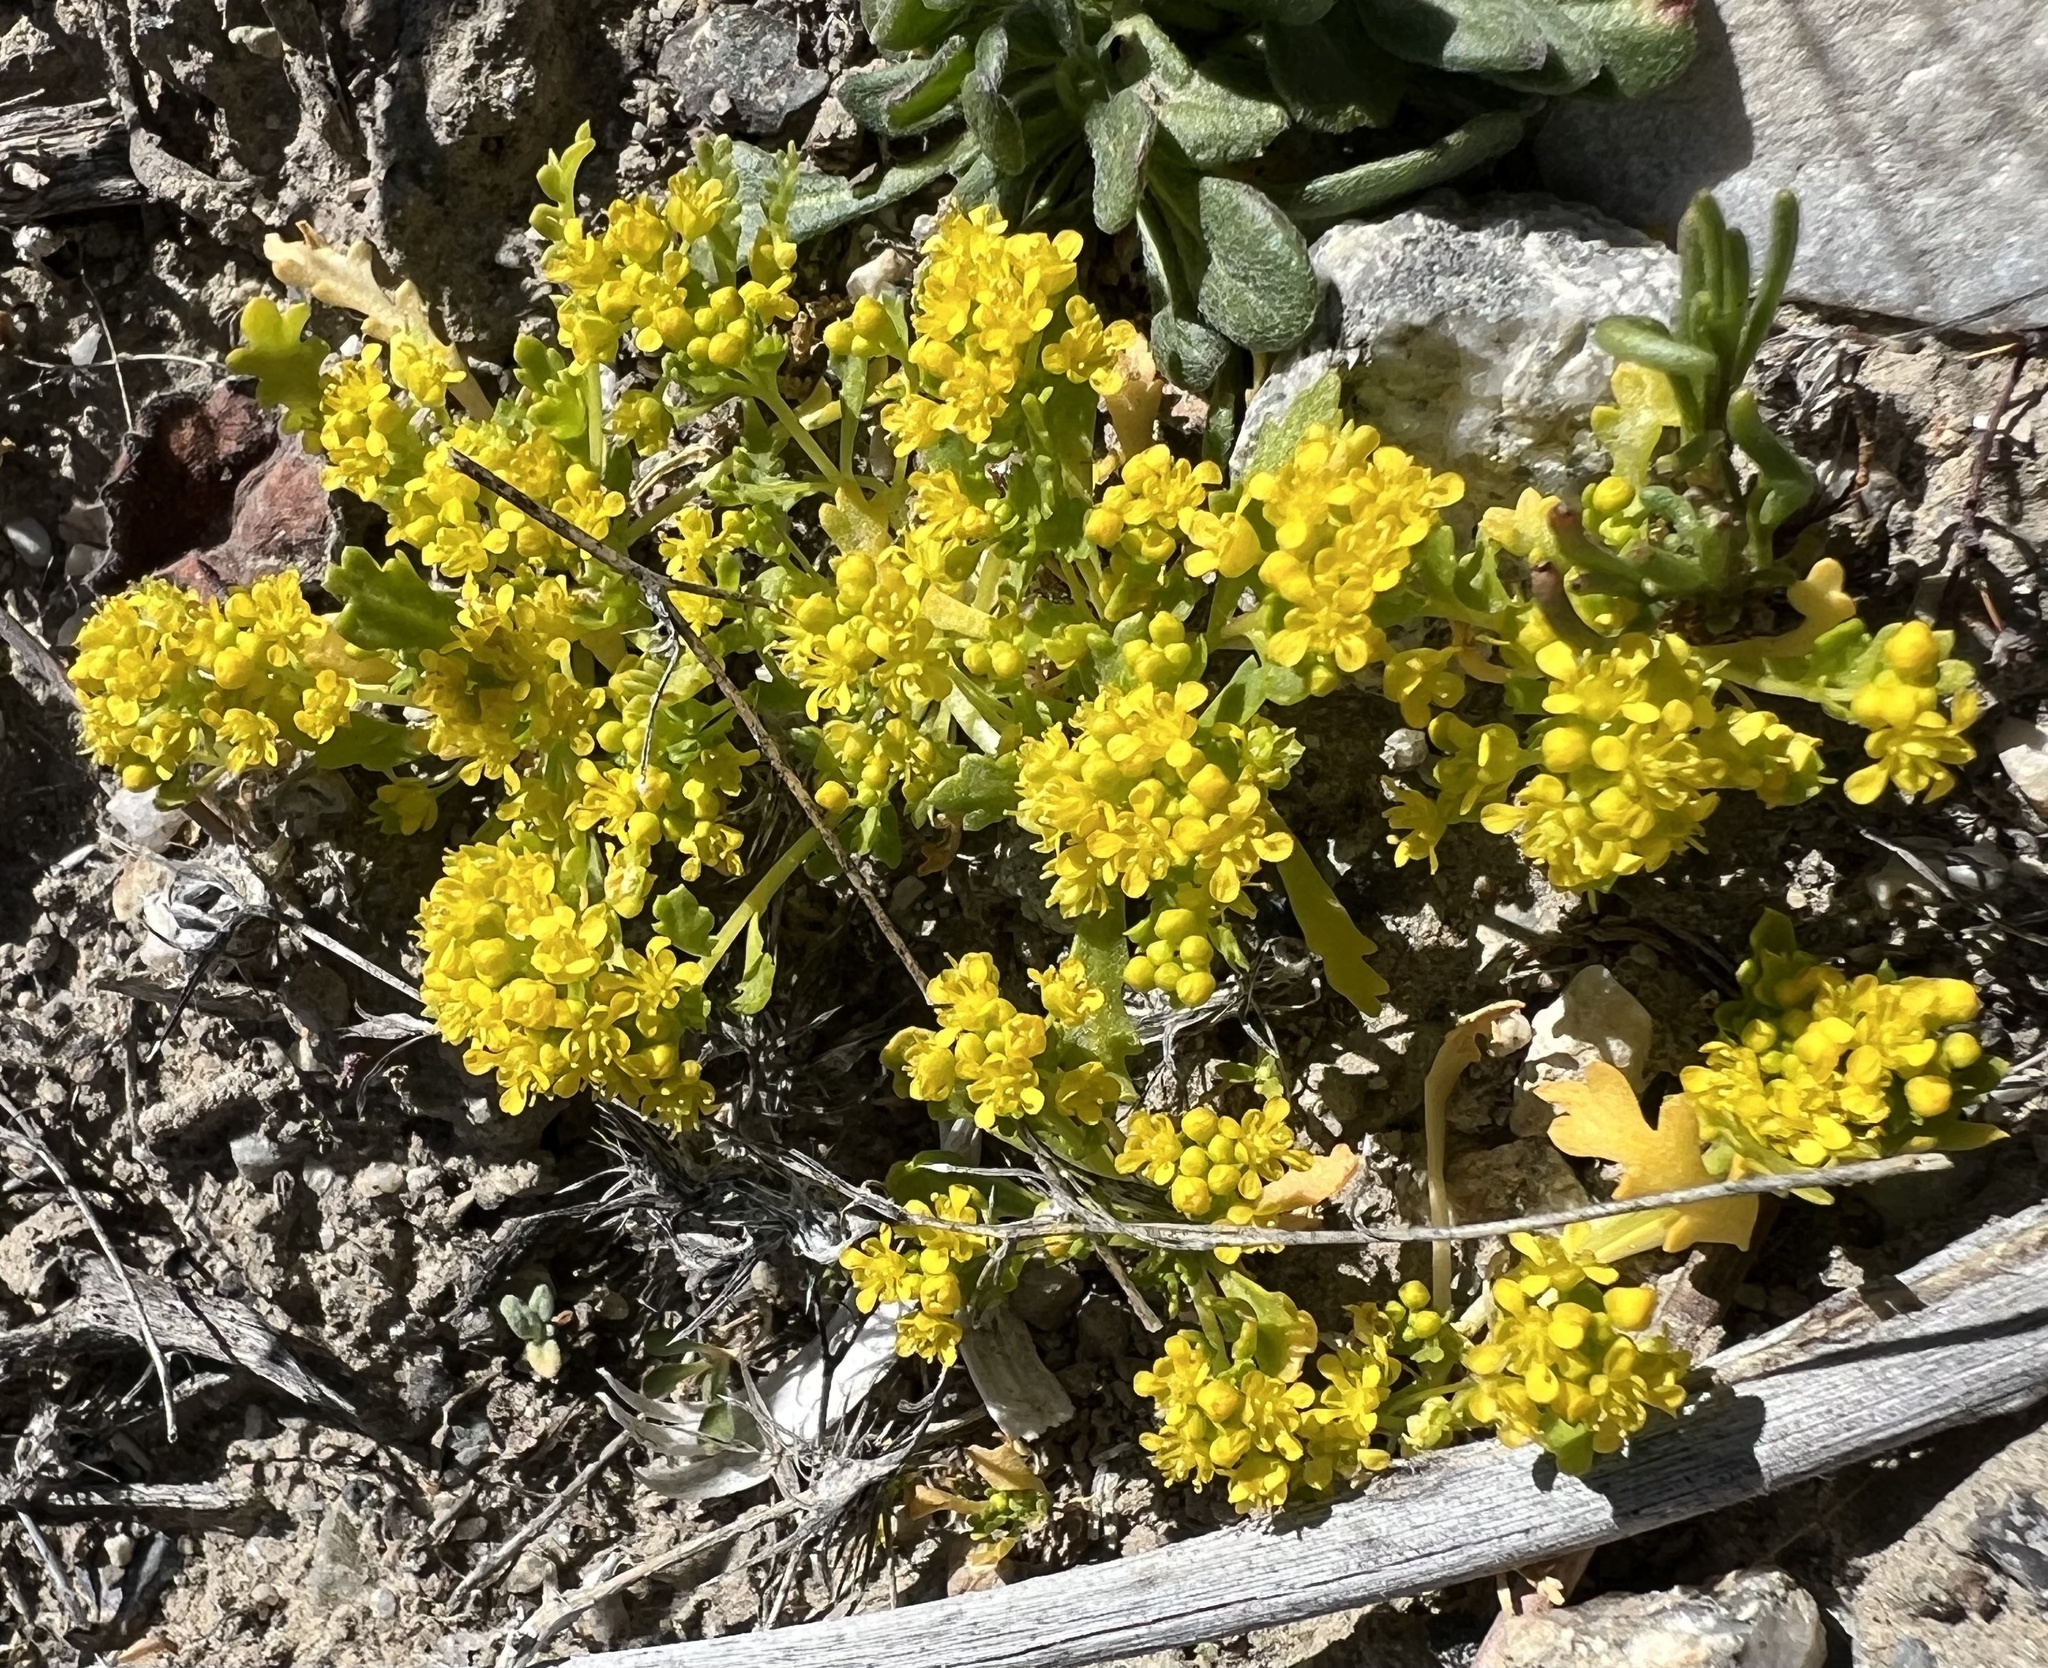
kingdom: Plantae
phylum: Tracheophyta
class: Magnoliopsida
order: Brassicales
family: Brassicaceae
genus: Lepidium
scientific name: Lepidium flavum
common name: Yellow pepperwort
